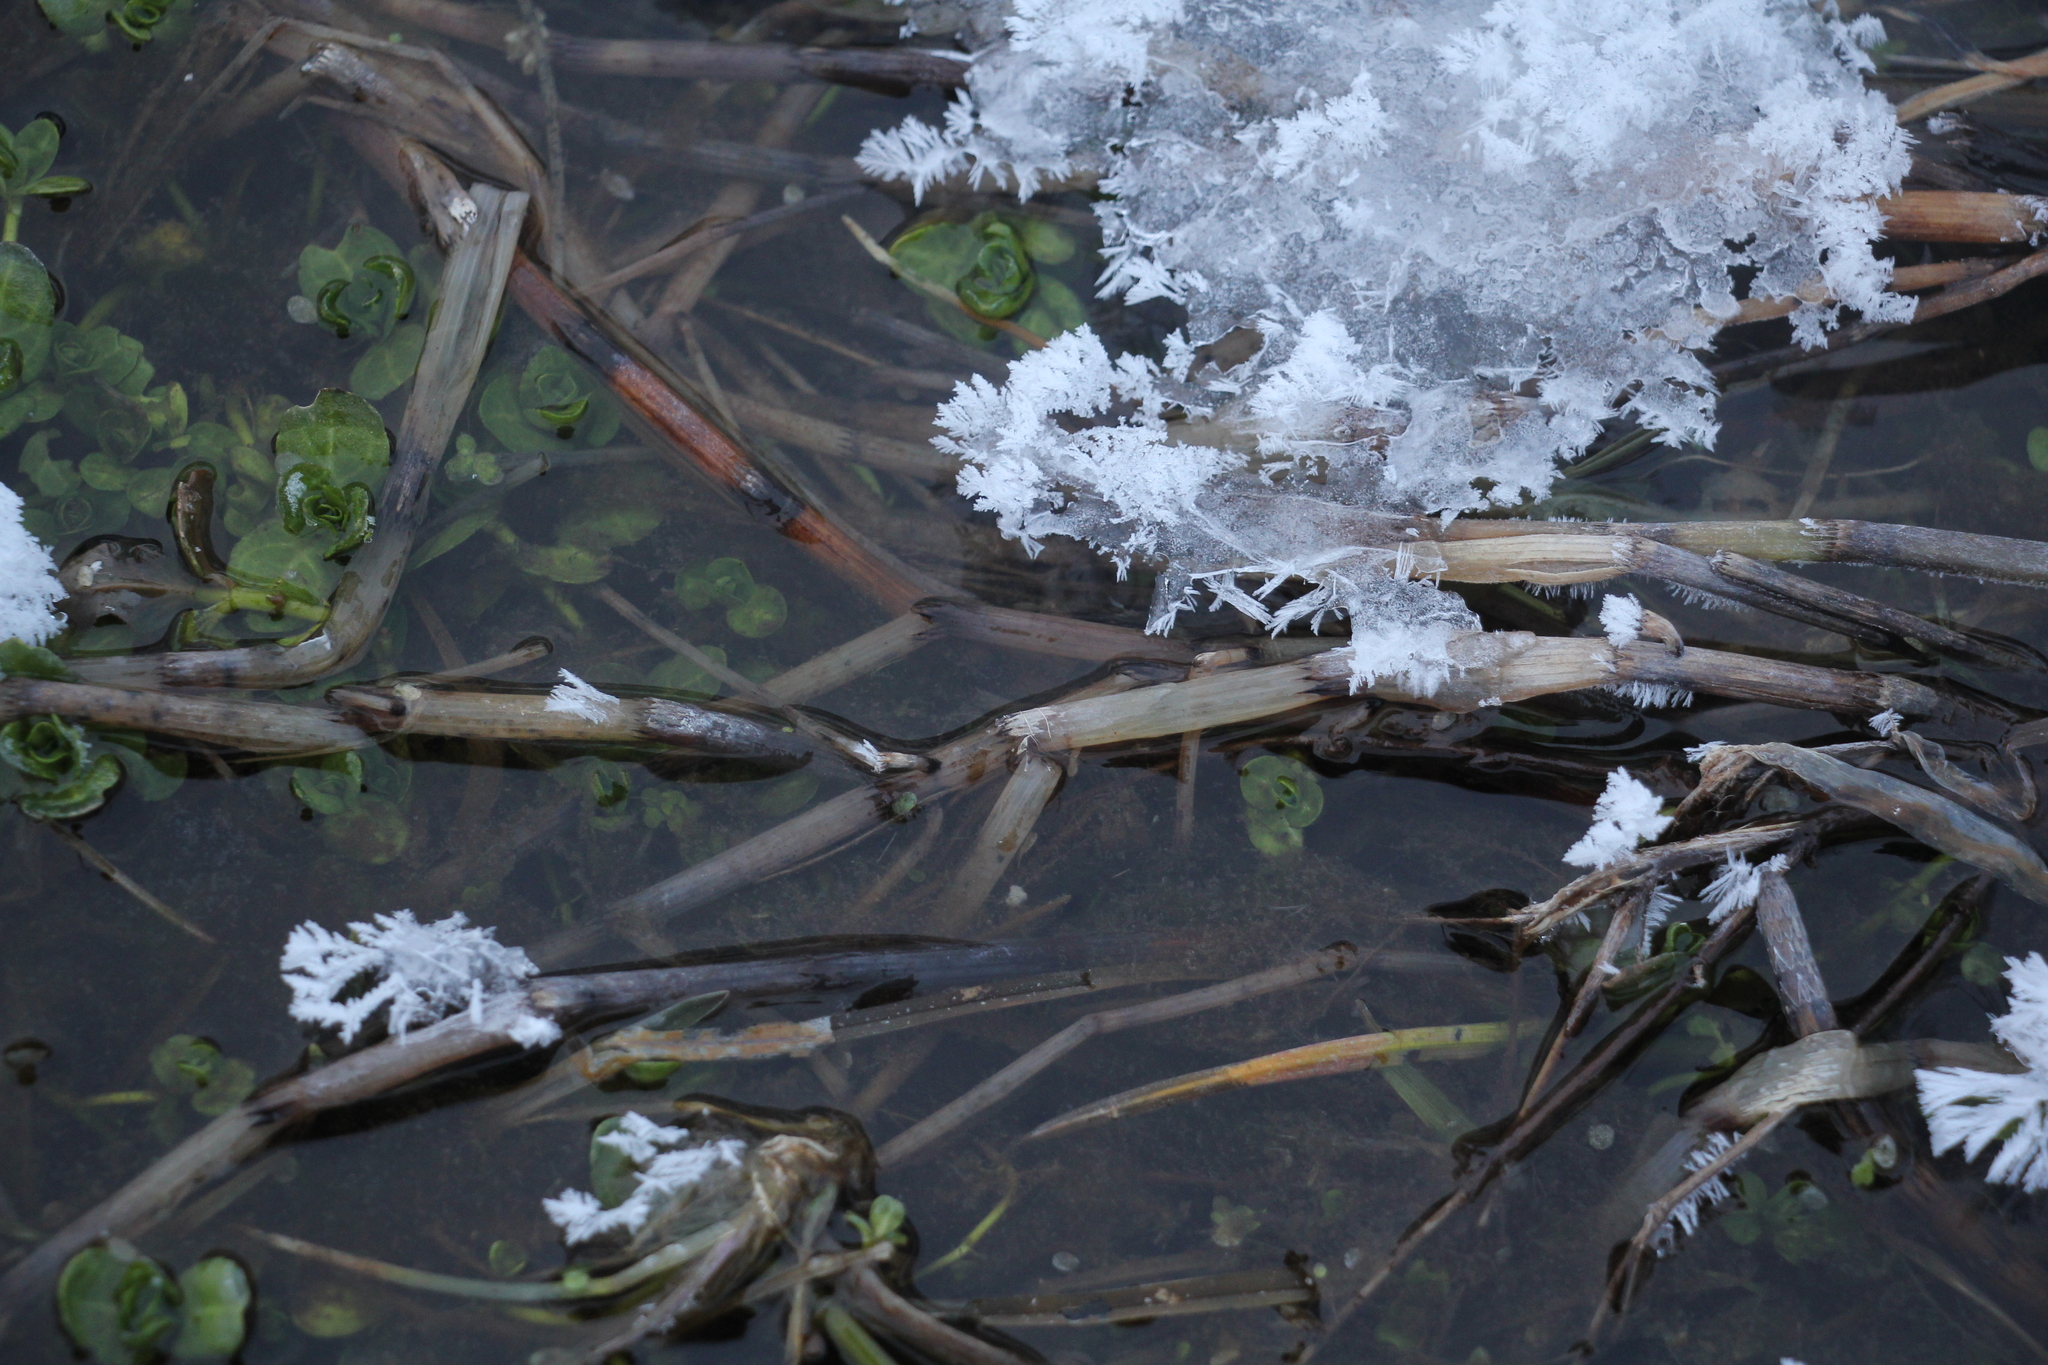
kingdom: Plantae
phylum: Tracheophyta
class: Polypodiopsida
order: Equisetales
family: Equisetaceae
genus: Equisetum
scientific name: Equisetum fluviatile
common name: Water horsetail
